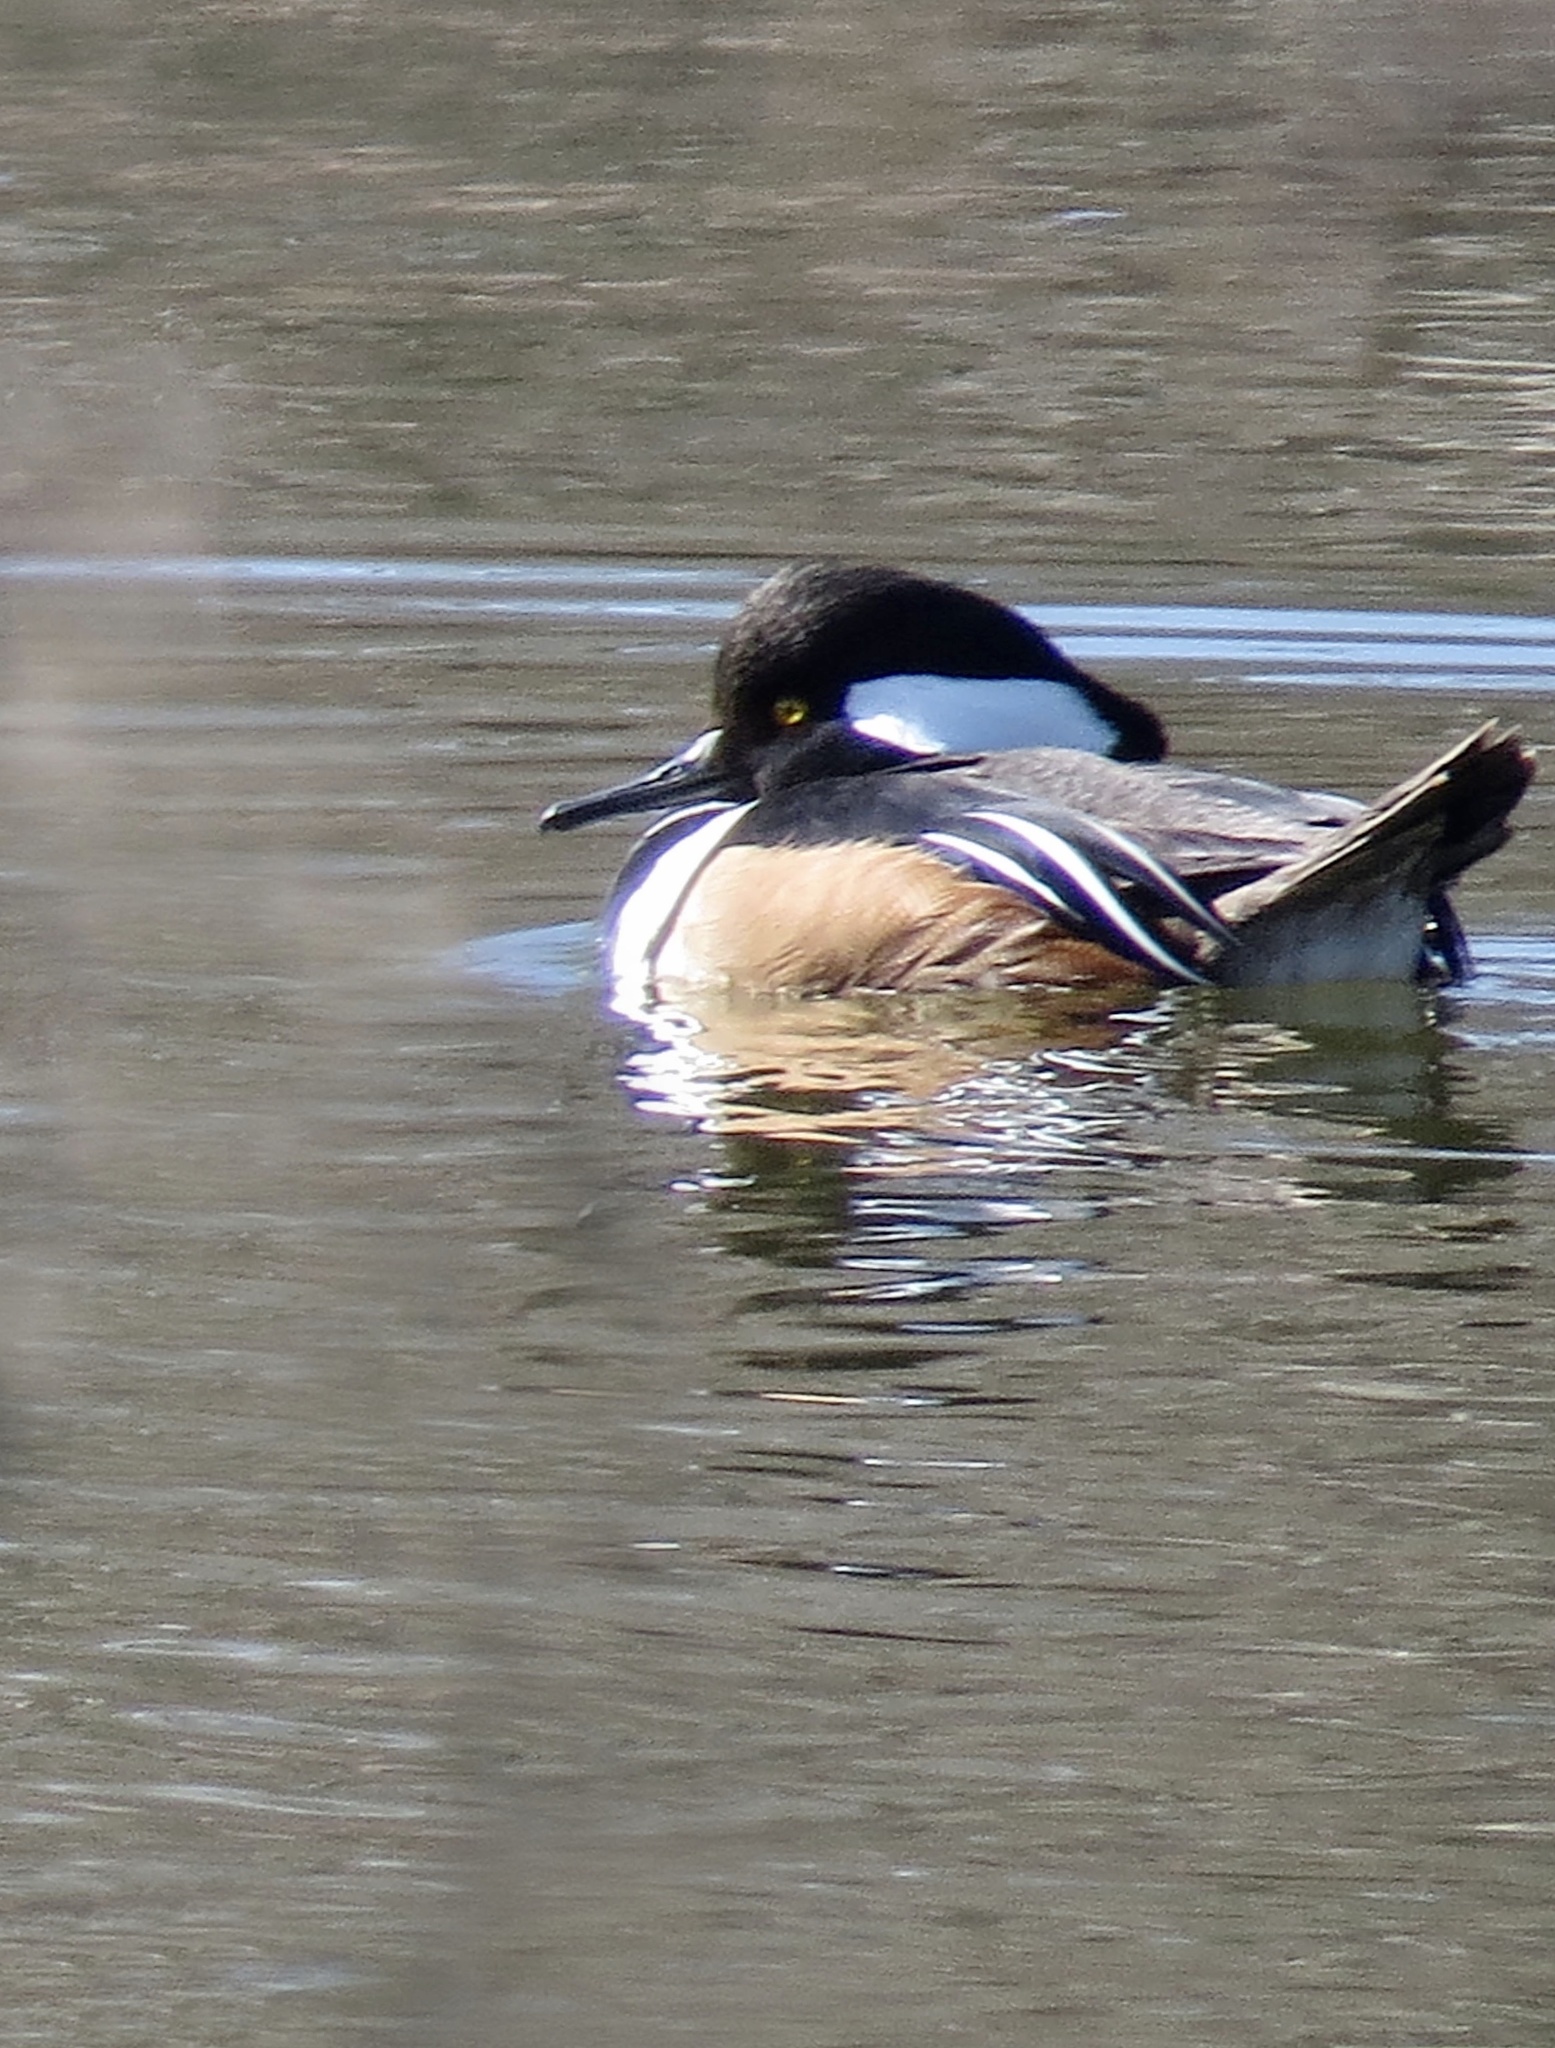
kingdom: Animalia
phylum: Chordata
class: Aves
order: Anseriformes
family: Anatidae
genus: Lophodytes
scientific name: Lophodytes cucullatus
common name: Hooded merganser
